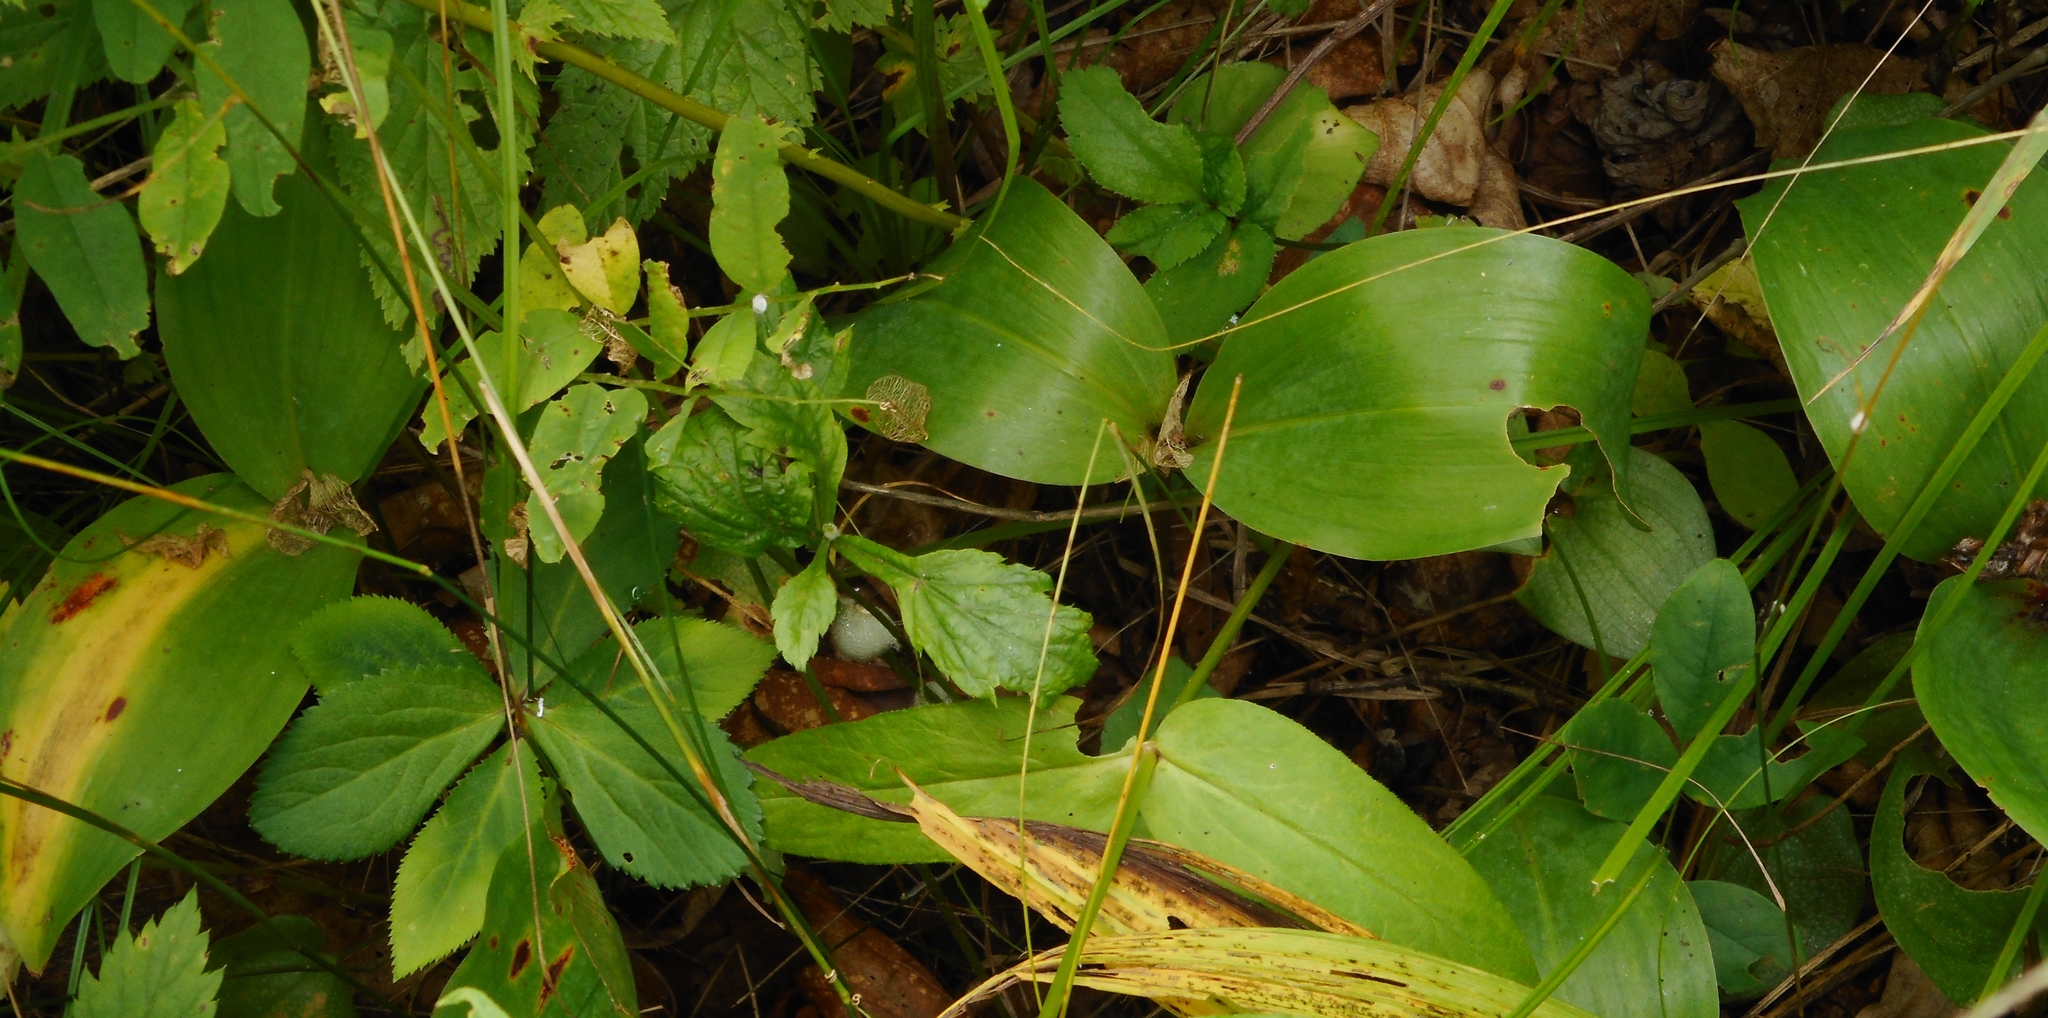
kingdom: Plantae
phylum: Tracheophyta
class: Liliopsida
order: Asparagales
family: Asparagaceae
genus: Convallaria
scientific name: Convallaria keiskei
